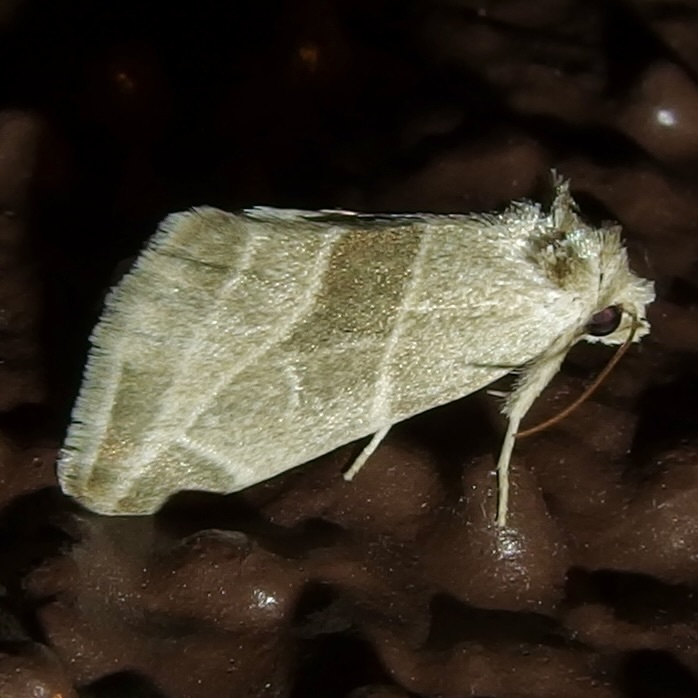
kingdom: Animalia
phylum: Arthropoda
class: Insecta
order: Lepidoptera
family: Noctuidae
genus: Plagiomimicus
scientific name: Plagiomimicus mimica
